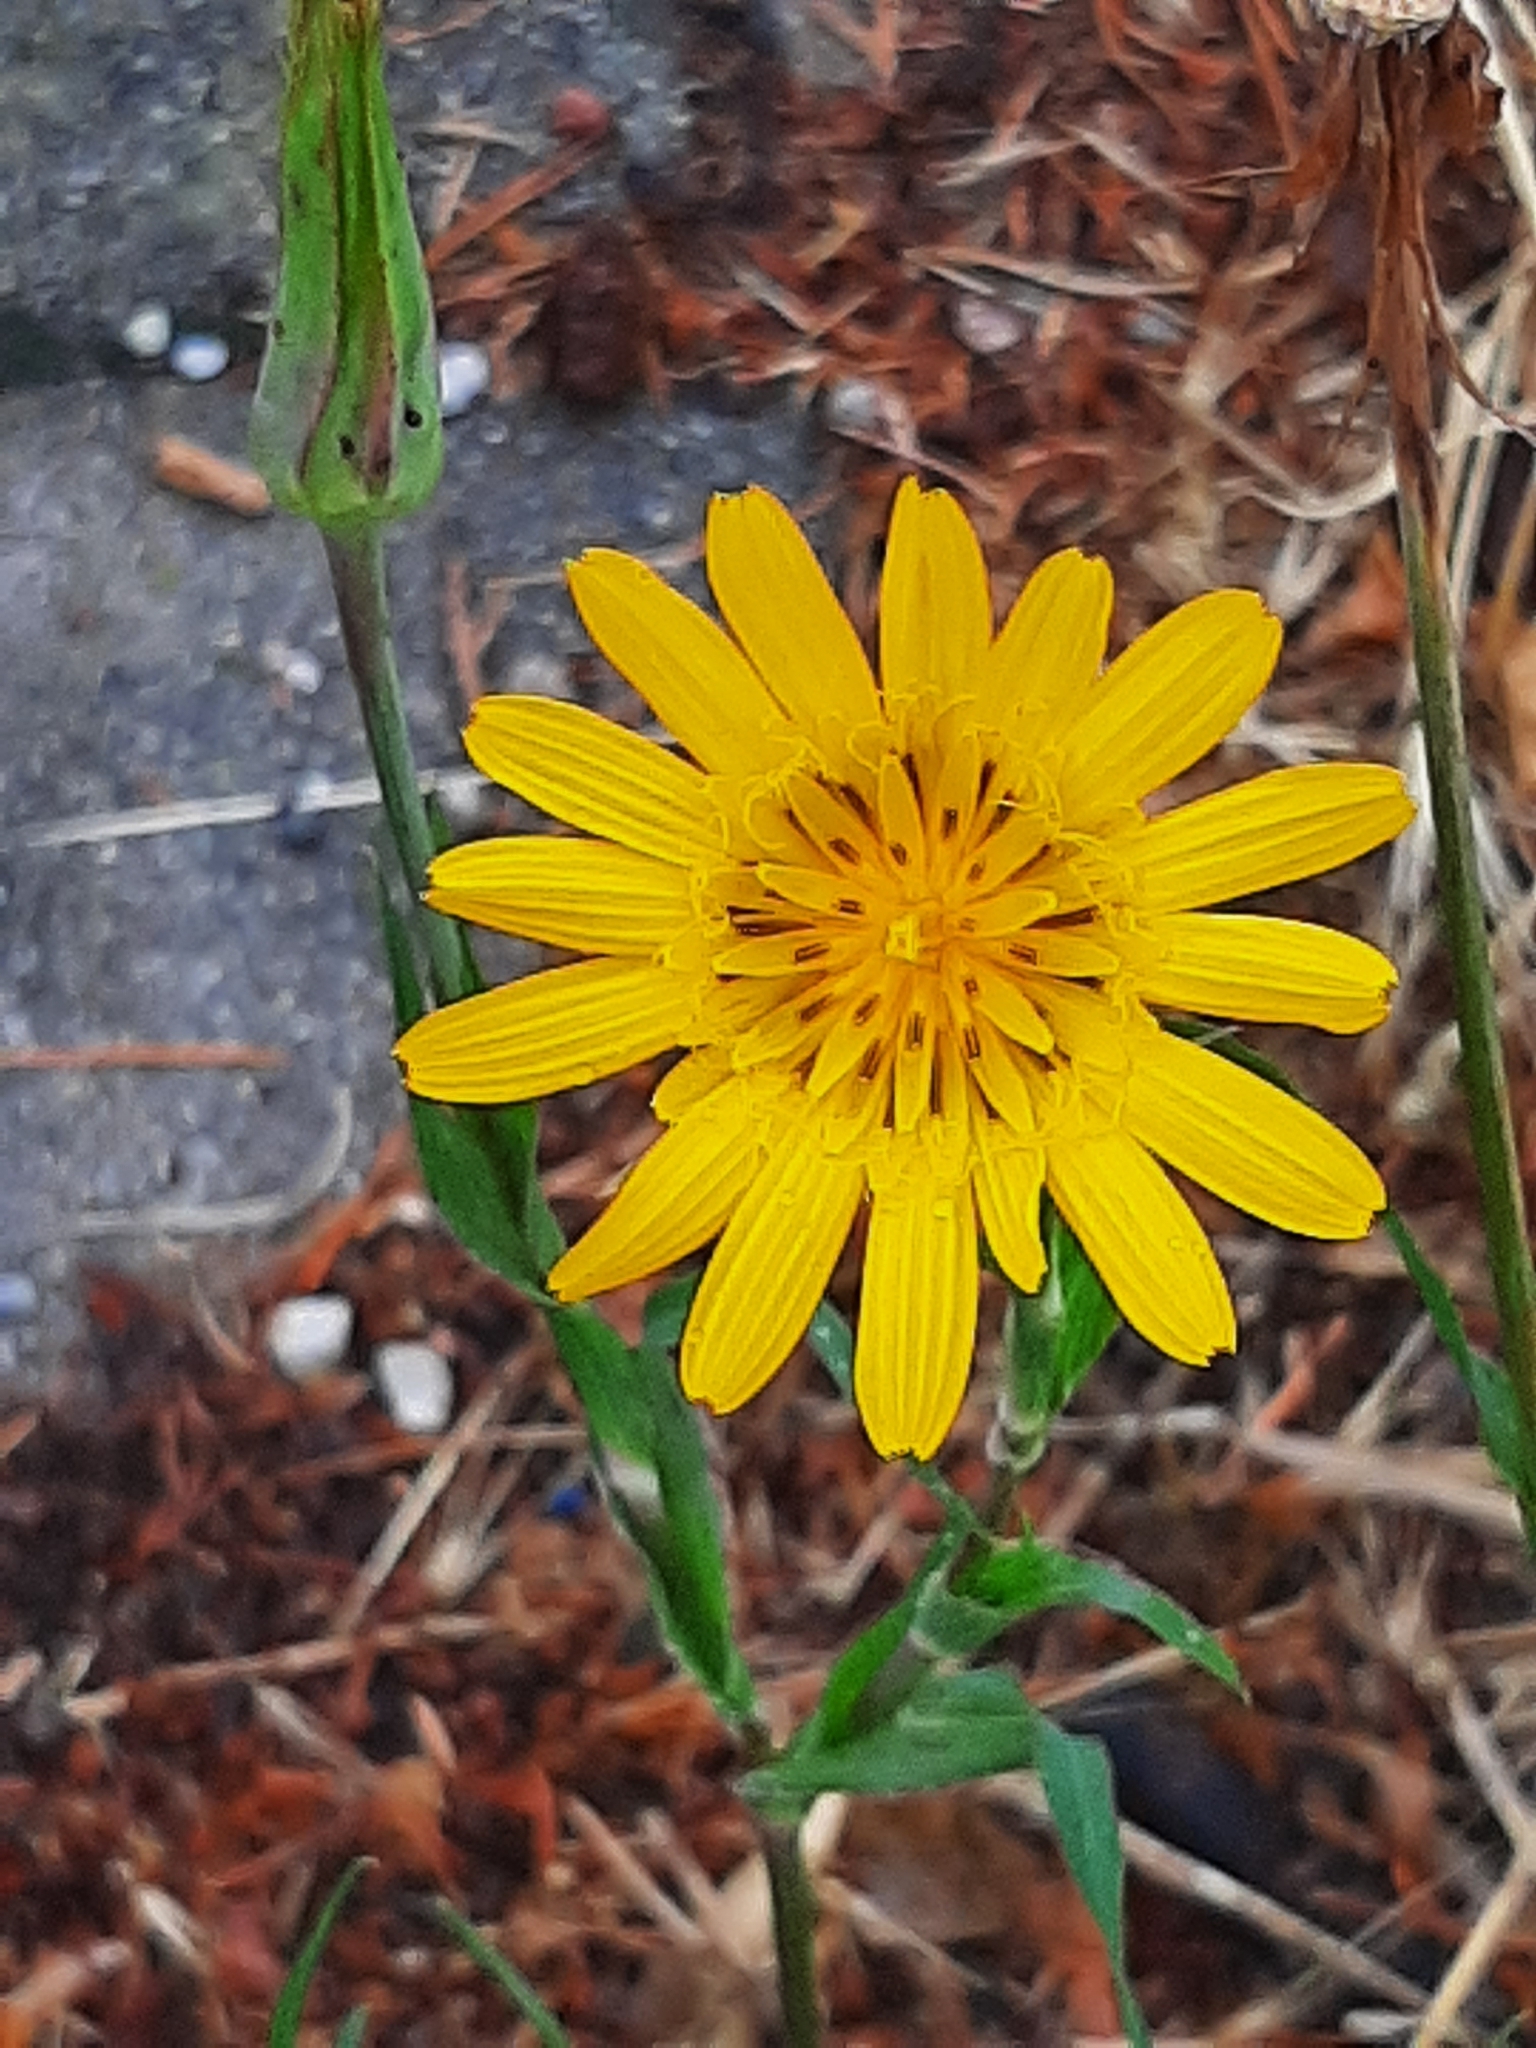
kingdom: Plantae
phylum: Tracheophyta
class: Magnoliopsida
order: Asterales
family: Asteraceae
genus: Tragopogon
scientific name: Tragopogon orientalis
